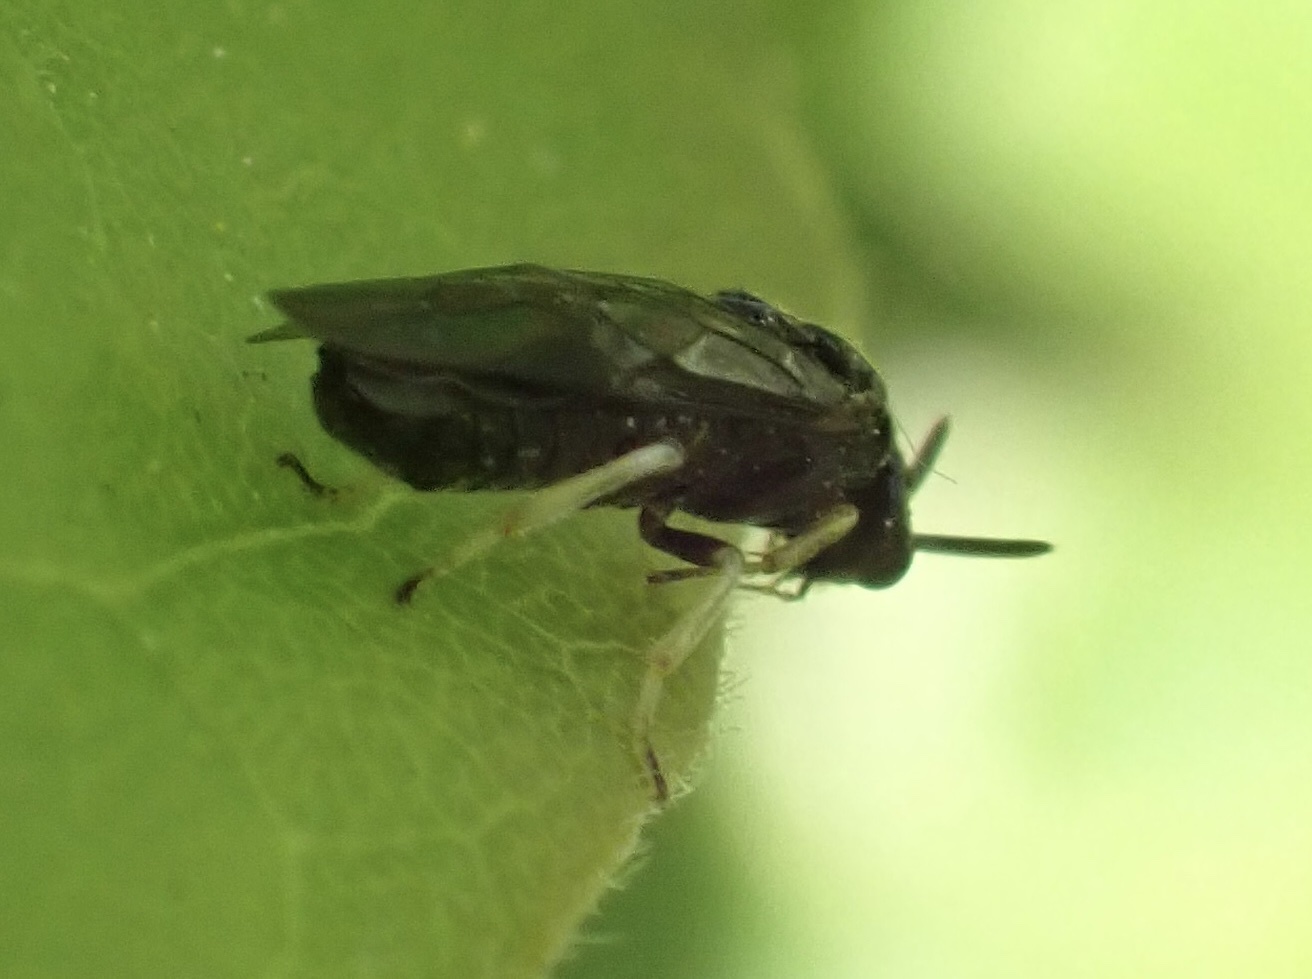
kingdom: Animalia
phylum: Arthropoda
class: Insecta
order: Hymenoptera
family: Argidae
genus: Aproceros
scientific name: Aproceros leucopoda
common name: Zig-zag elm sawfly
